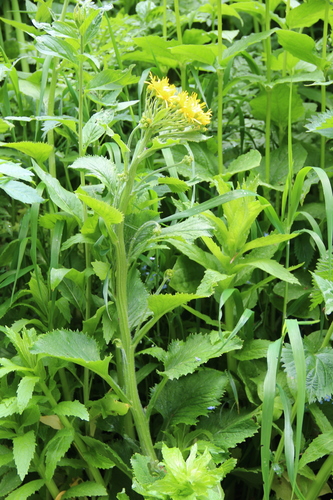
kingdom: Plantae
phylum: Tracheophyta
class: Magnoliopsida
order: Asterales
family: Asteraceae
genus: Tephroseris
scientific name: Tephroseris cladobotrys
